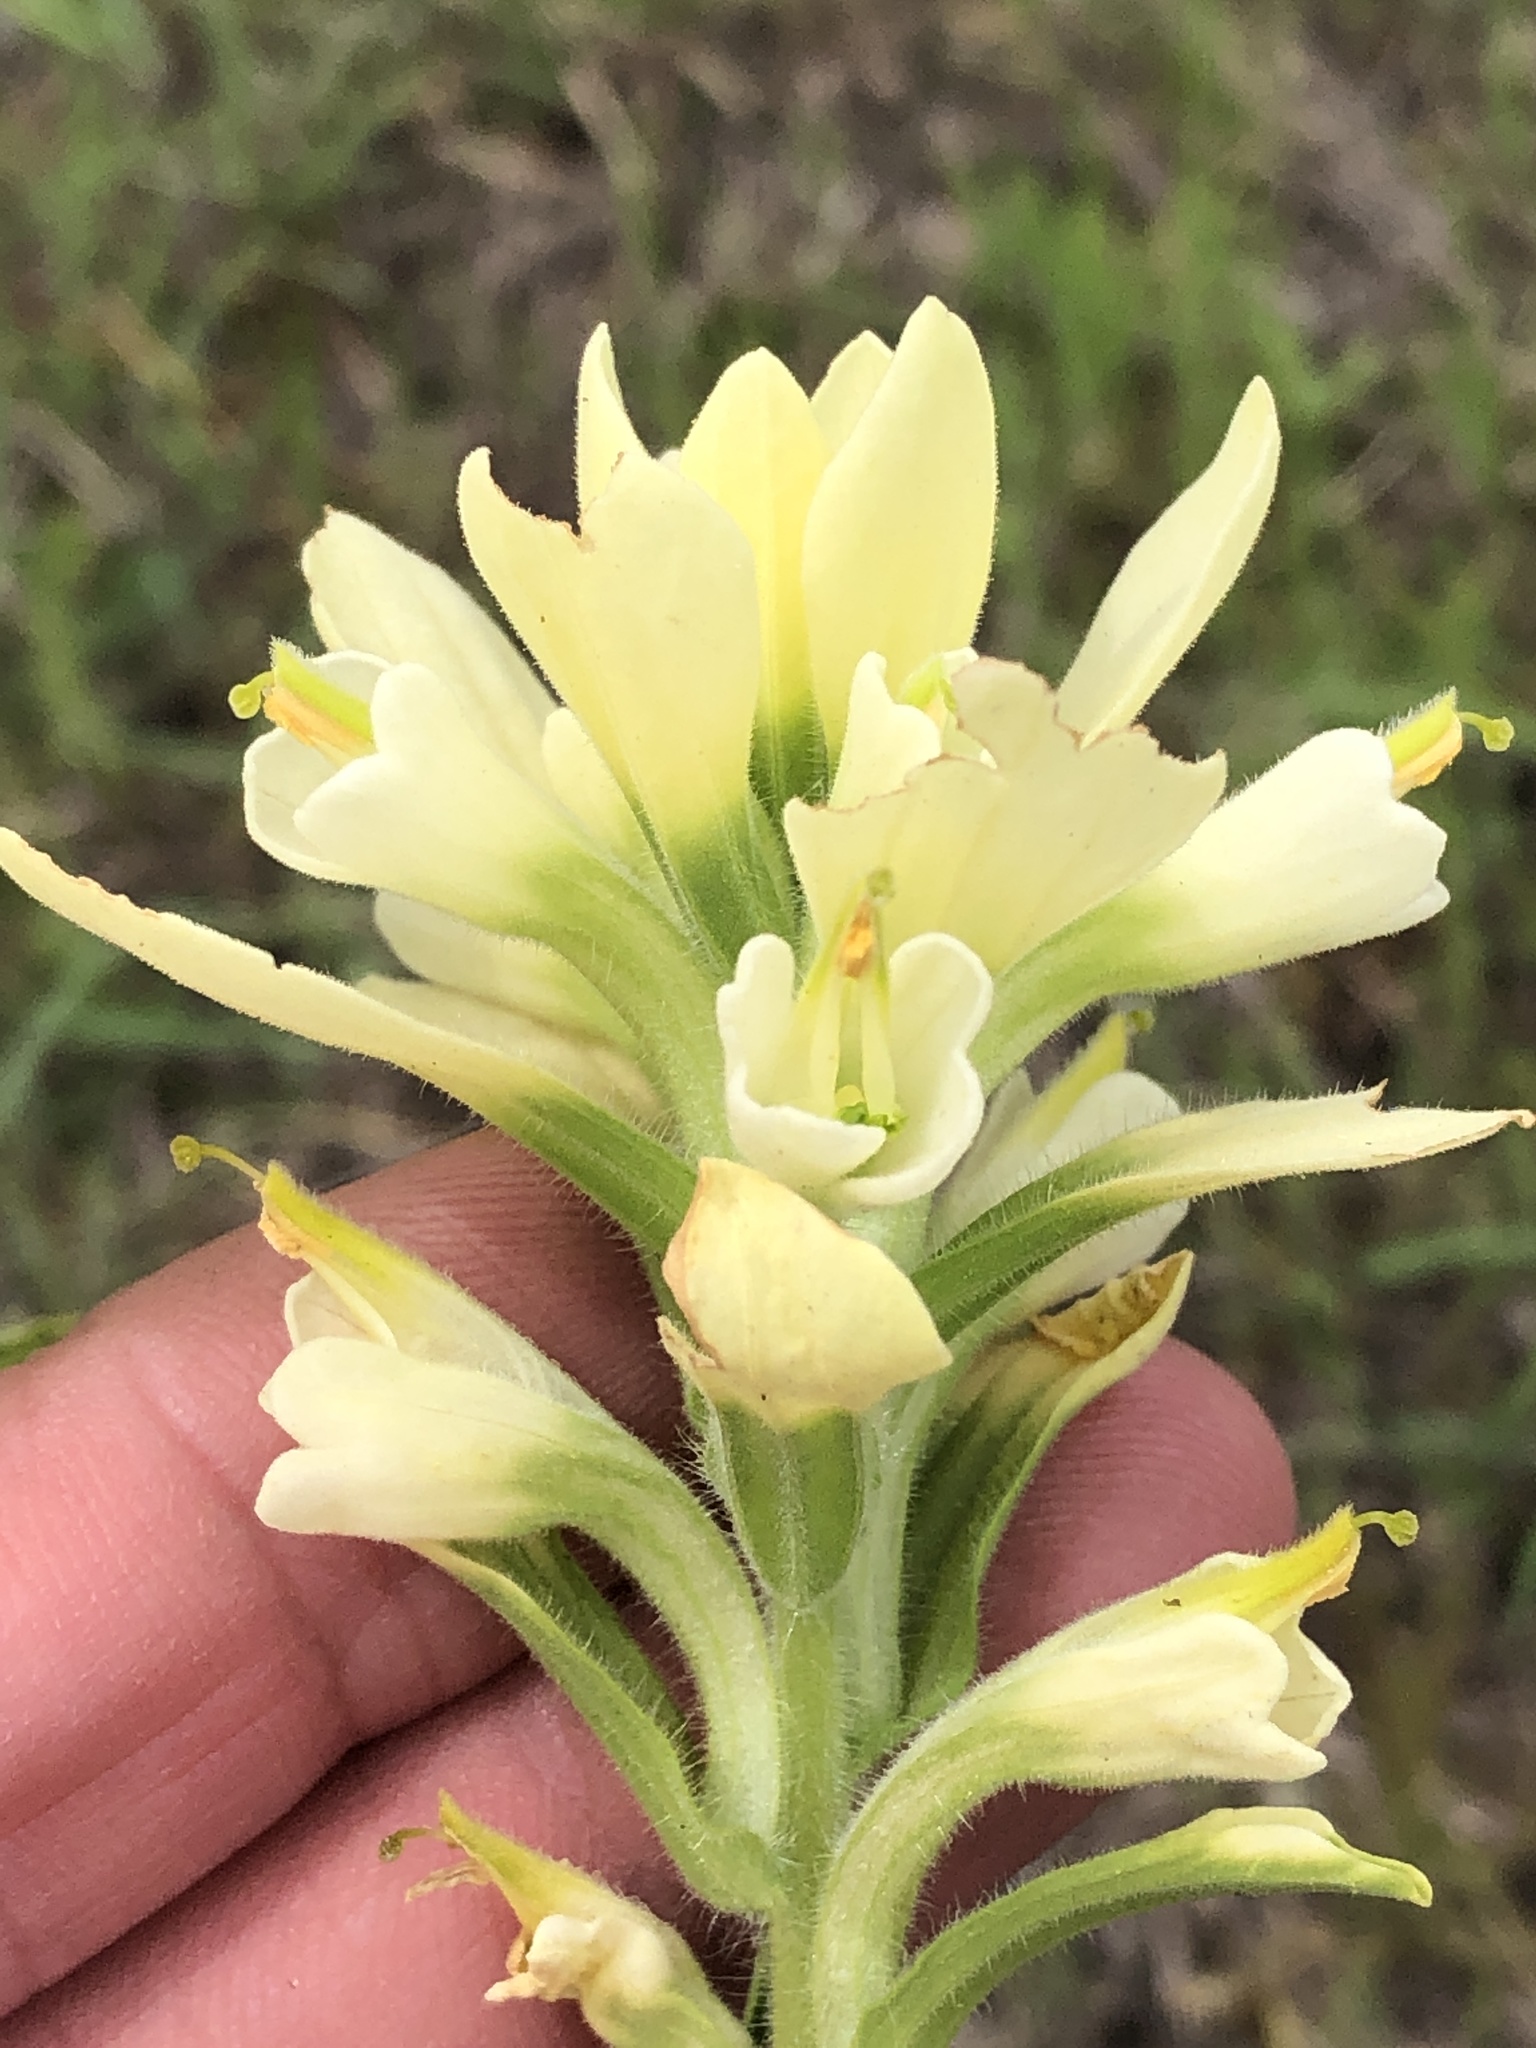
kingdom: Plantae
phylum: Tracheophyta
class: Magnoliopsida
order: Lamiales
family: Orobanchaceae
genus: Castilleja
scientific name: Castilleja indivisa
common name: Texas paintbrush
